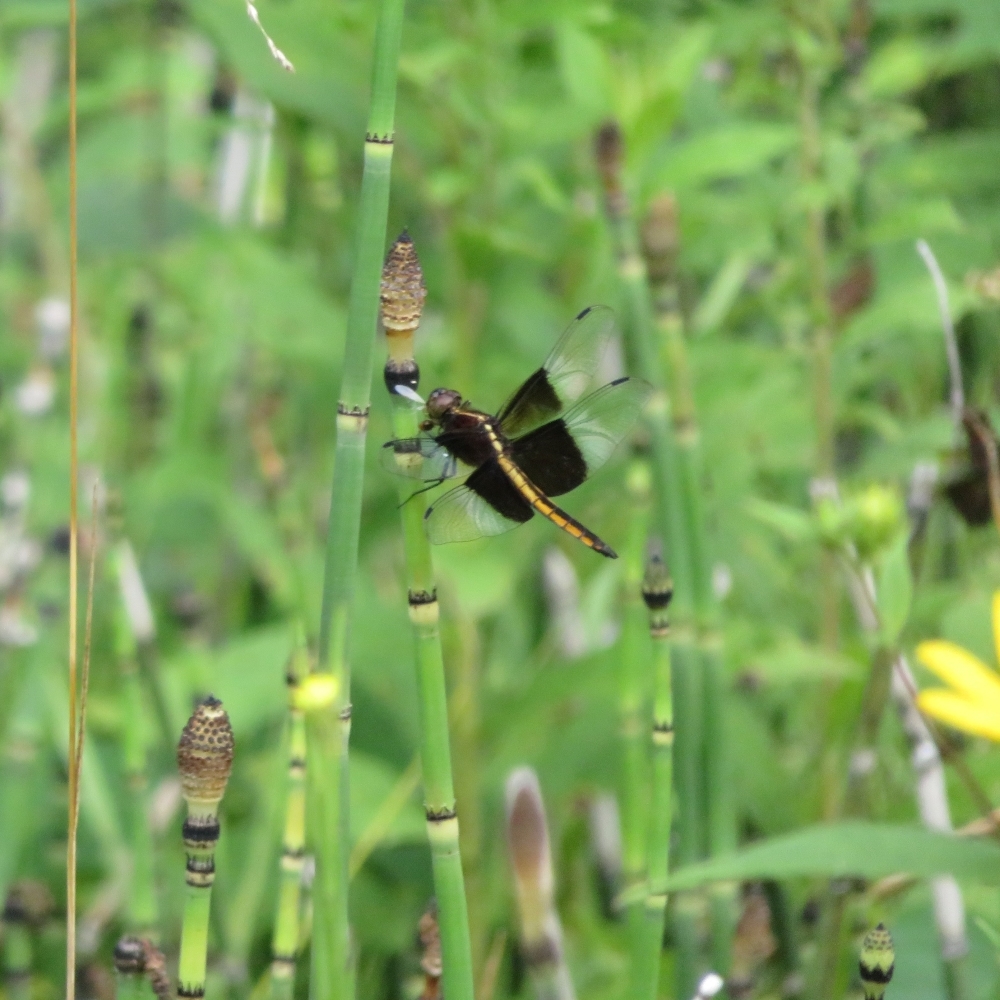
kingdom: Animalia
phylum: Arthropoda
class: Insecta
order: Odonata
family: Libellulidae
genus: Libellula
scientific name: Libellula luctuosa
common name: Widow skimmer
